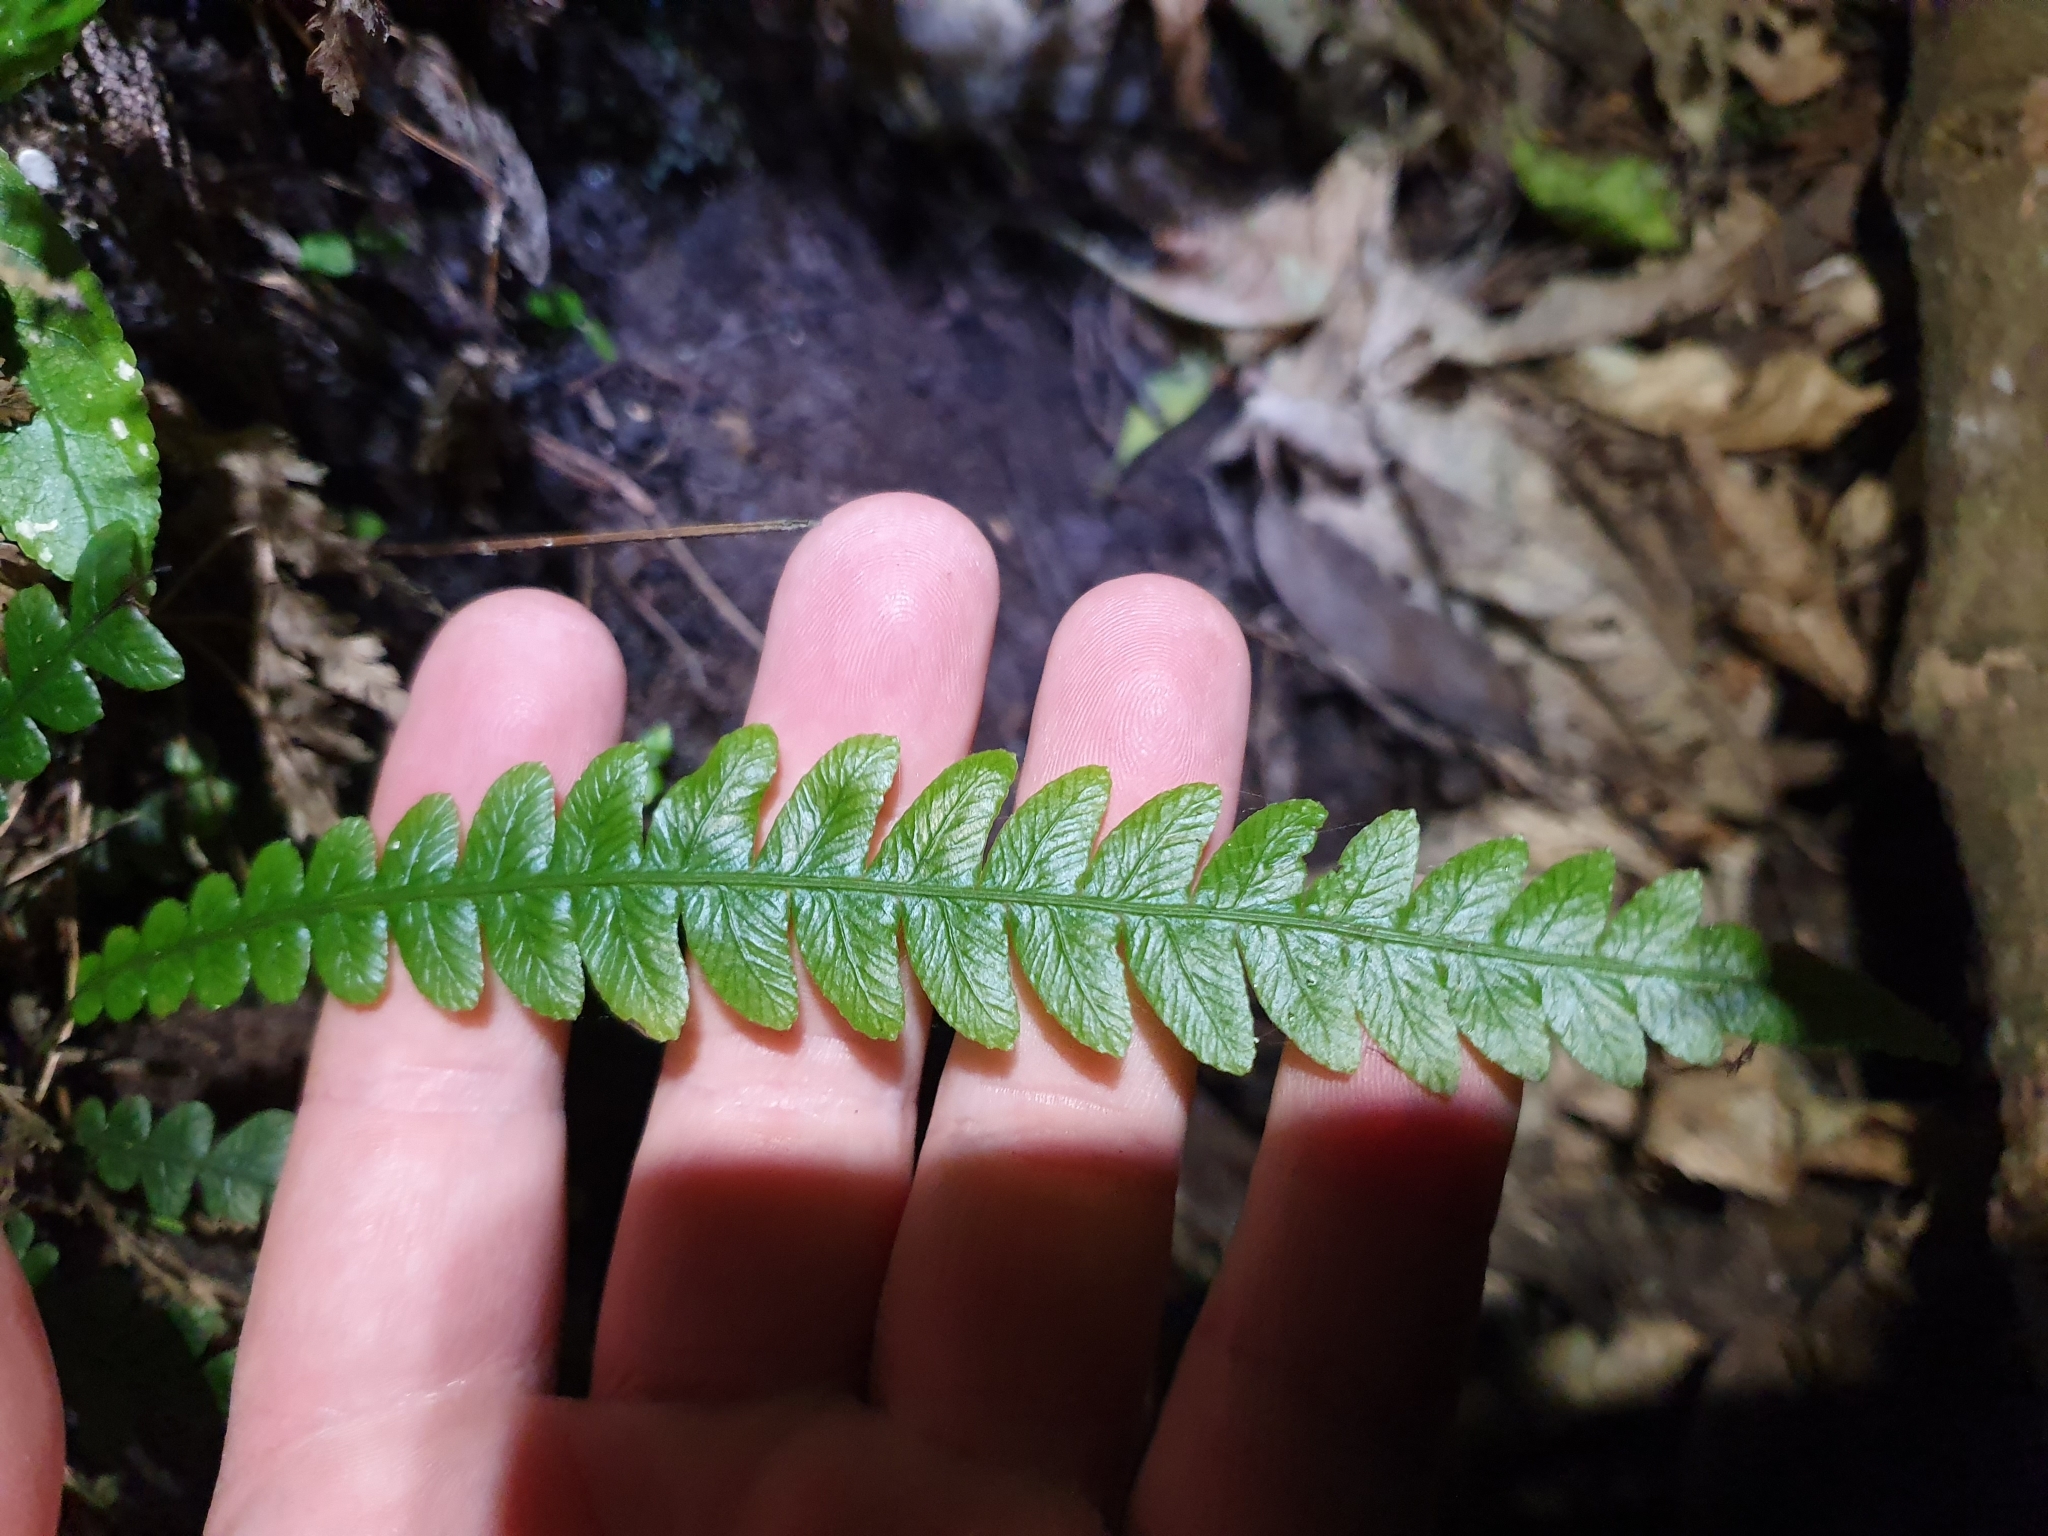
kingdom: Plantae
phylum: Tracheophyta
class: Polypodiopsida
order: Polypodiales
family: Blechnaceae
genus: Austroblechnum
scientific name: Austroblechnum lanceolatum
